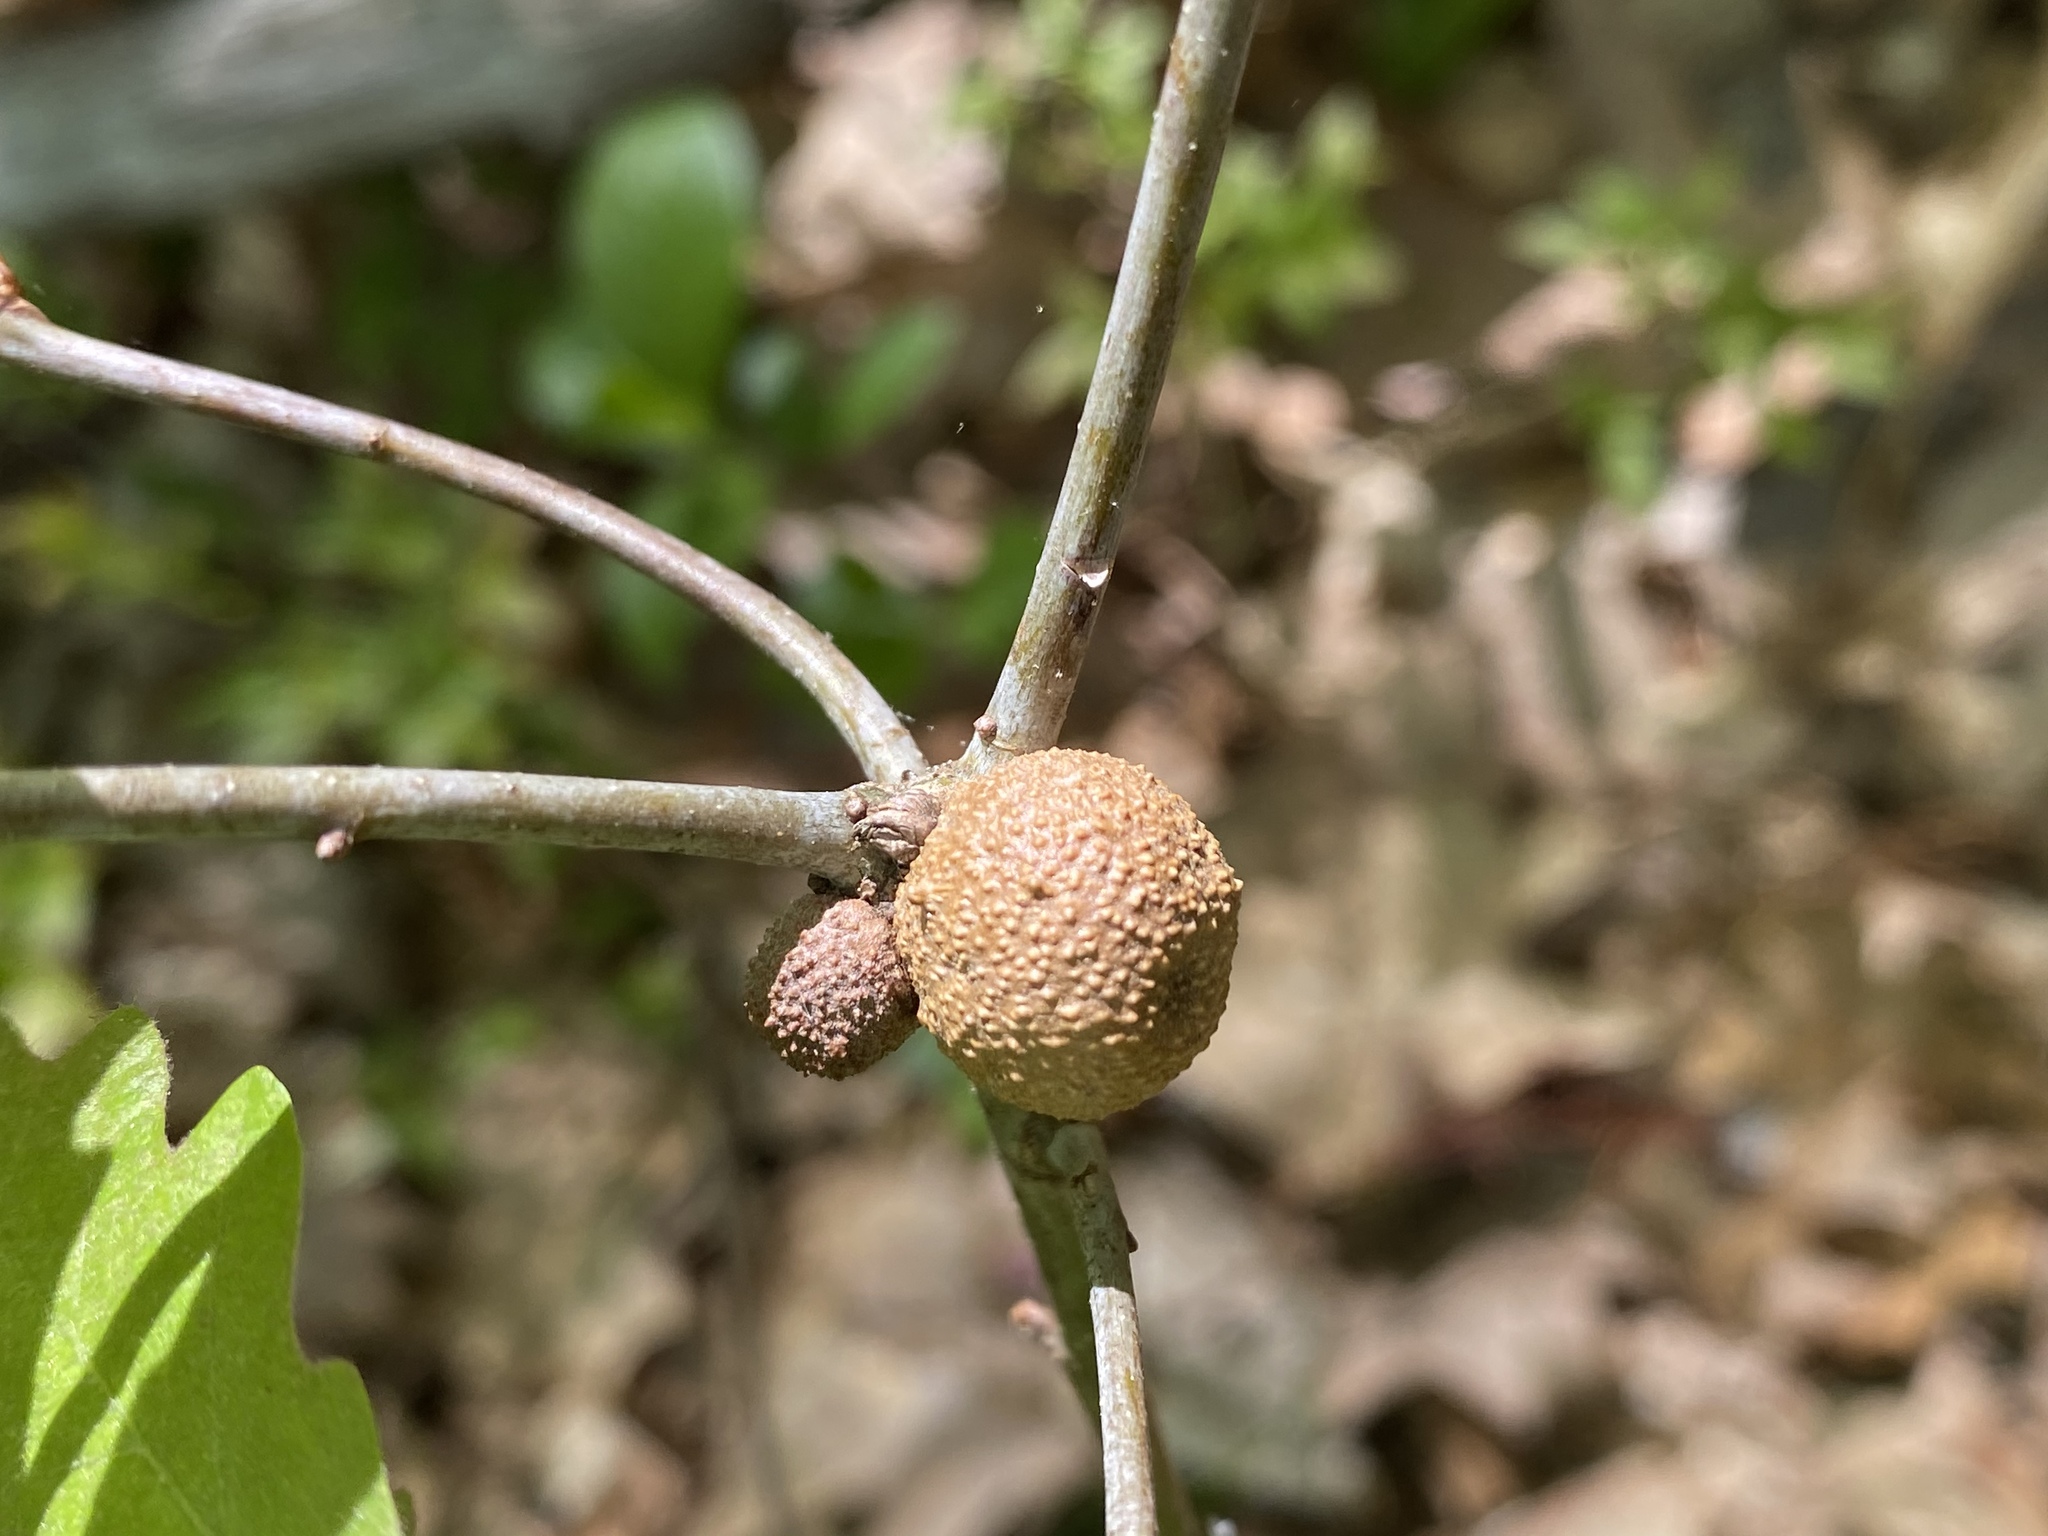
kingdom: Animalia
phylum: Arthropoda
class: Insecta
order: Hymenoptera
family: Cynipidae
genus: Disholcaspis
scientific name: Disholcaspis quercusglobulus
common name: Round bullet gall wasp
